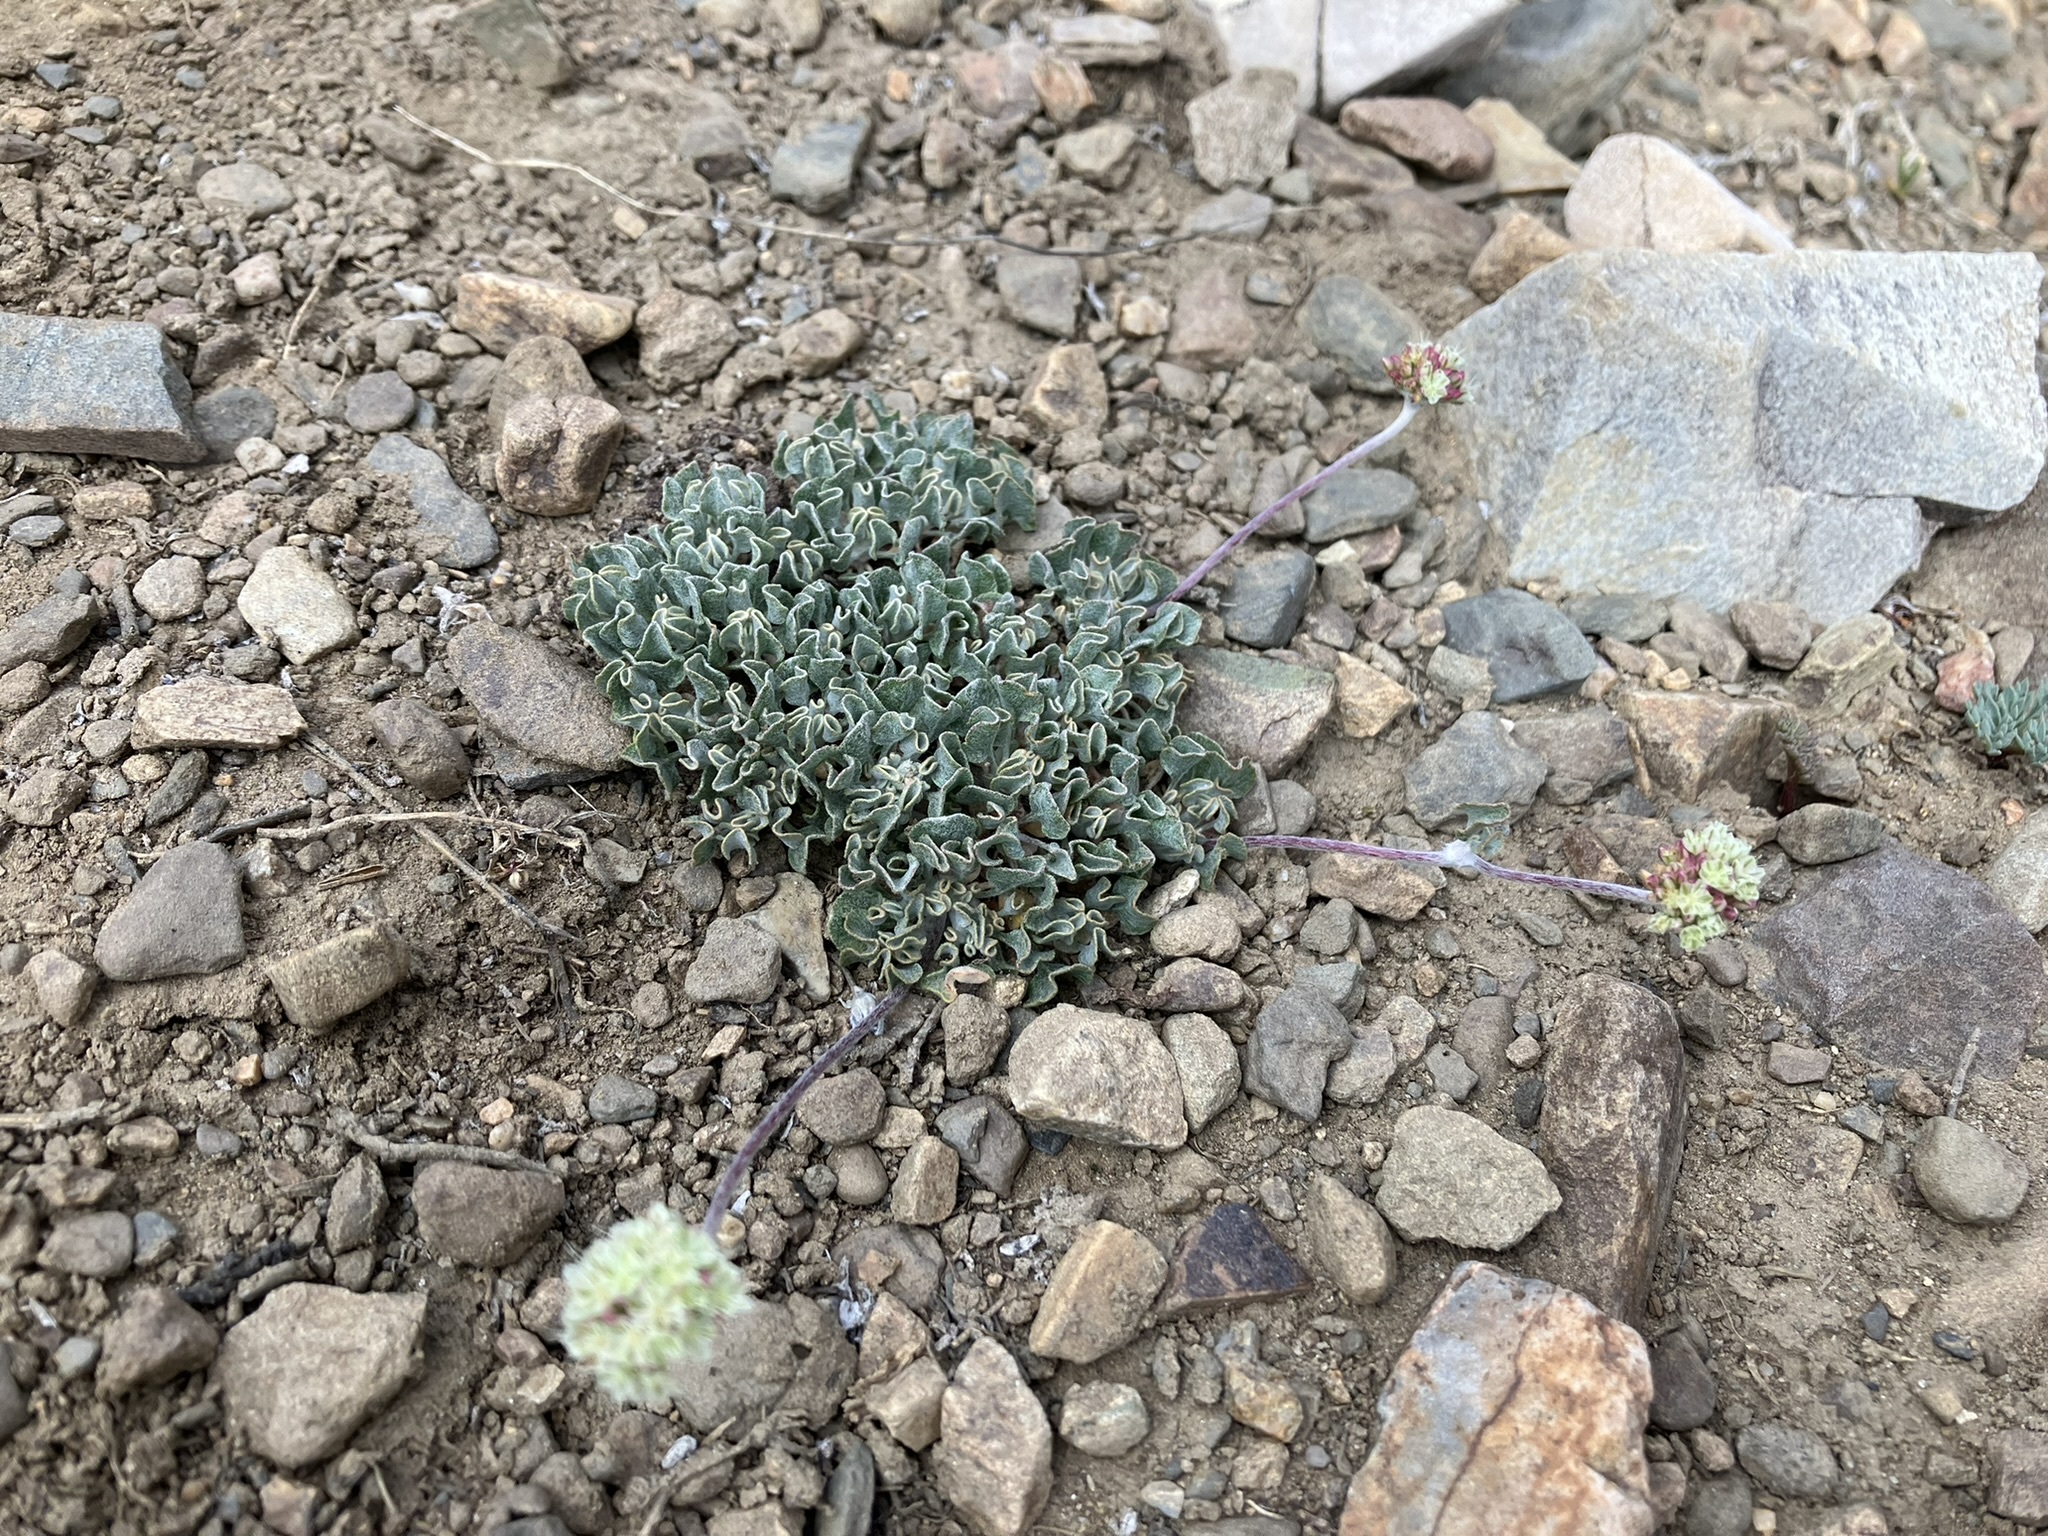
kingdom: Plantae
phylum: Tracheophyta
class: Magnoliopsida
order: Caryophyllales
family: Polygonaceae
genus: Eriogonum
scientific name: Eriogonum ovalifolium
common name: Cushion buckwheat
